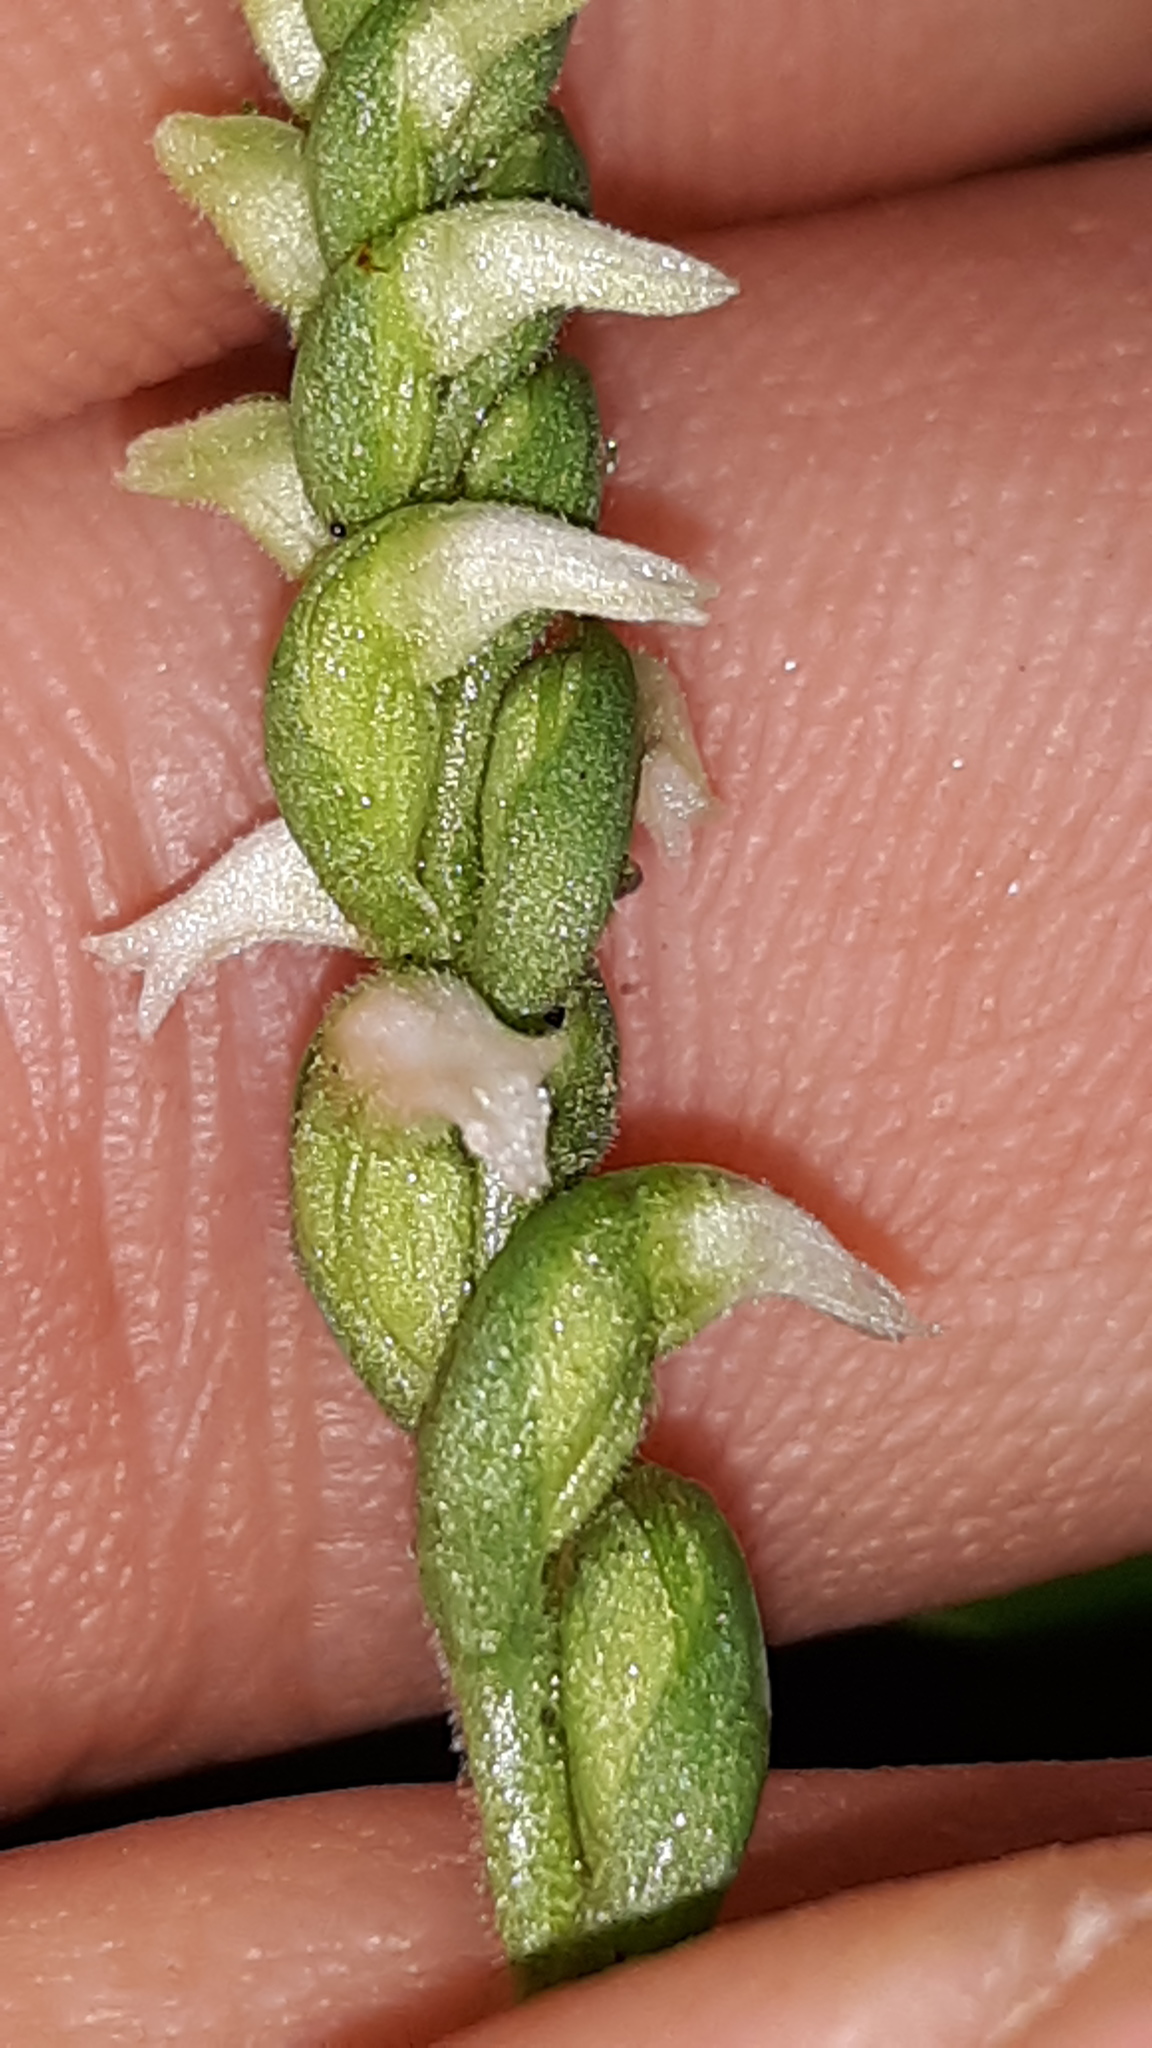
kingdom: Plantae
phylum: Tracheophyta
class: Liliopsida
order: Asparagales
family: Orchidaceae
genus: Spiranthes
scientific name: Spiranthes ovalis
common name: October ladies'-tresses
